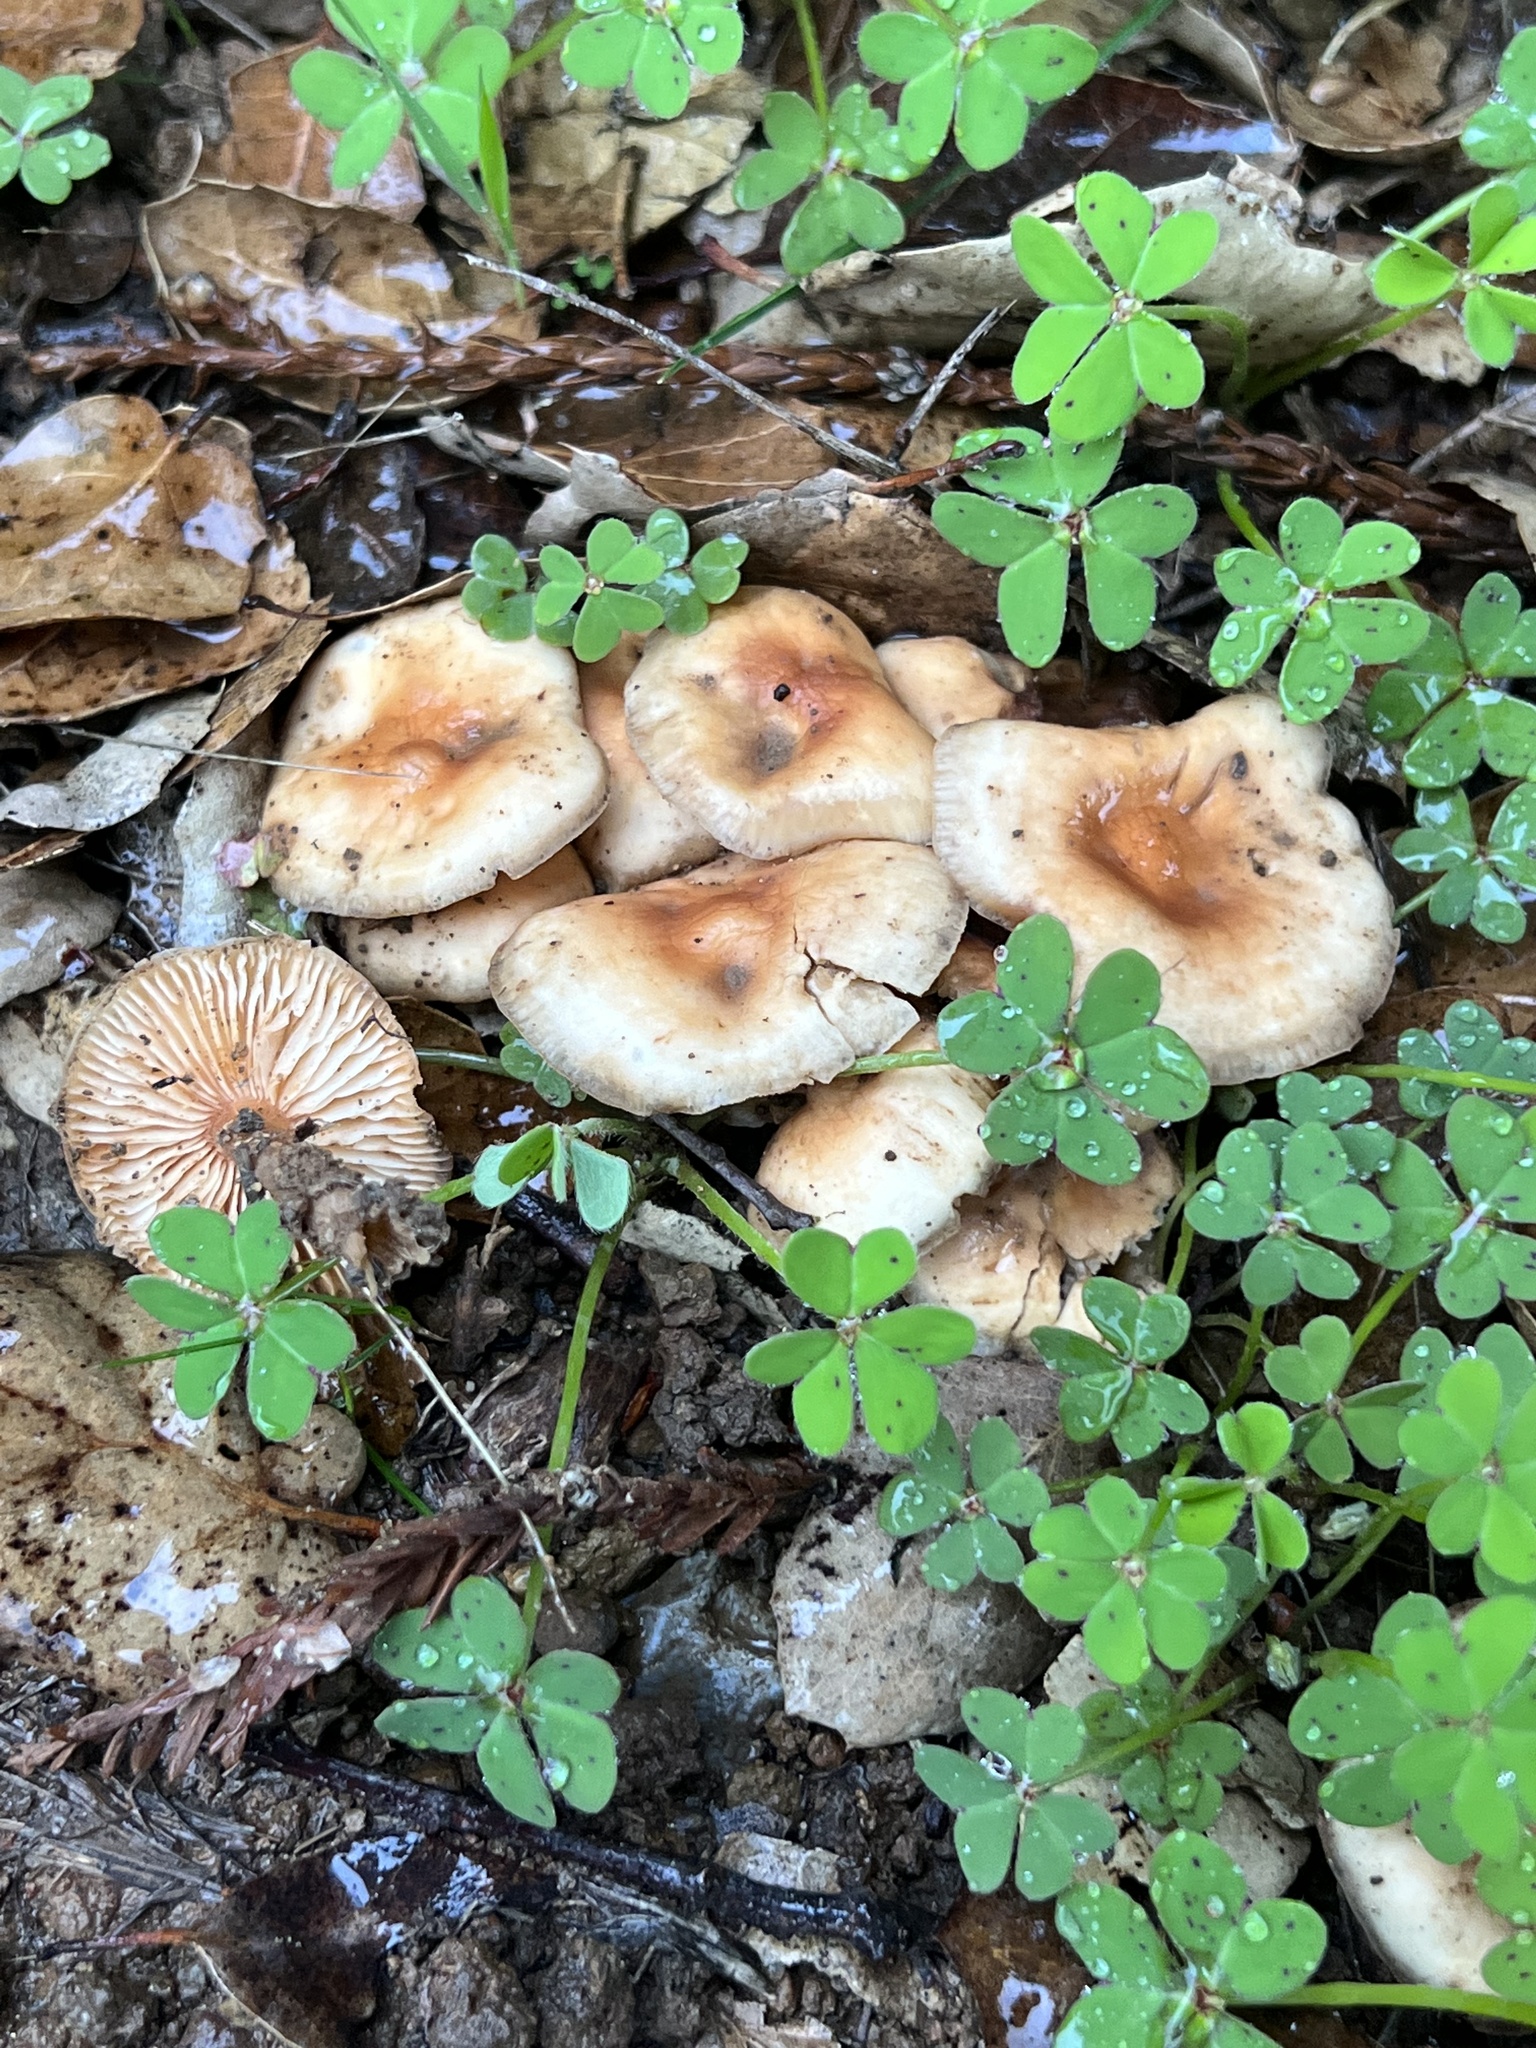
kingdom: Fungi
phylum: Basidiomycota
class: Agaricomycetes
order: Agaricales
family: Omphalotaceae
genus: Gymnopus
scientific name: Gymnopus dryophilus
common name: Penny top
